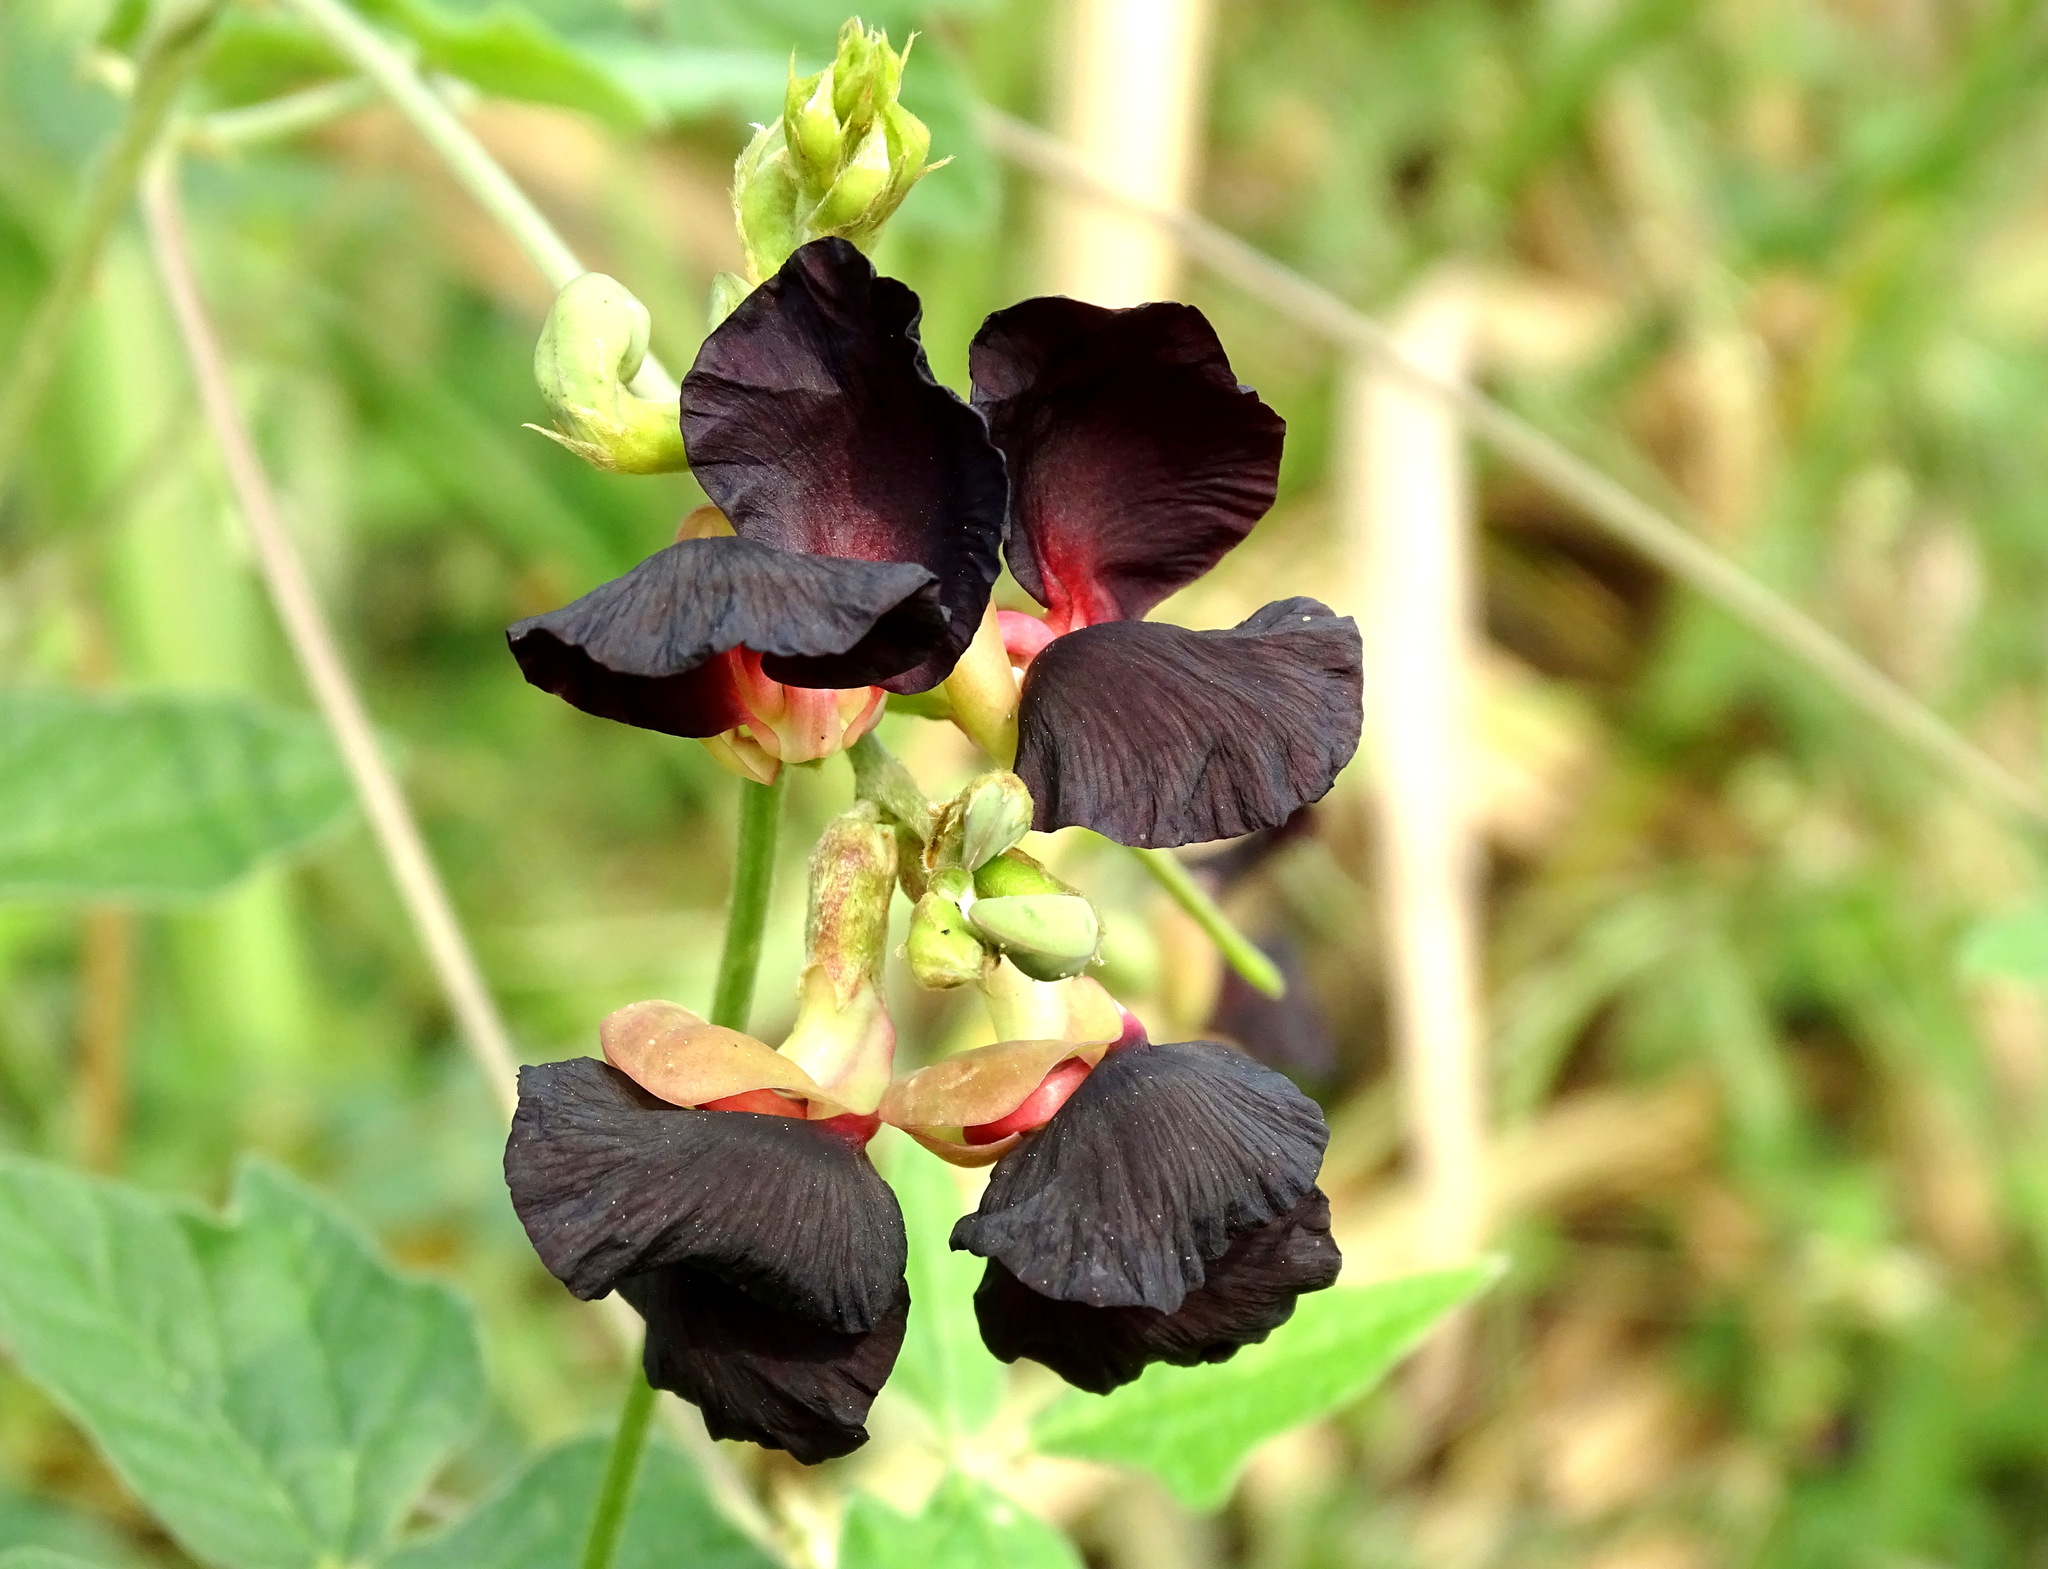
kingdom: Plantae
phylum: Tracheophyta
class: Magnoliopsida
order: Fabales
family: Fabaceae
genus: Macroptilium
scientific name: Macroptilium atropurpureum
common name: Purple bushbean
